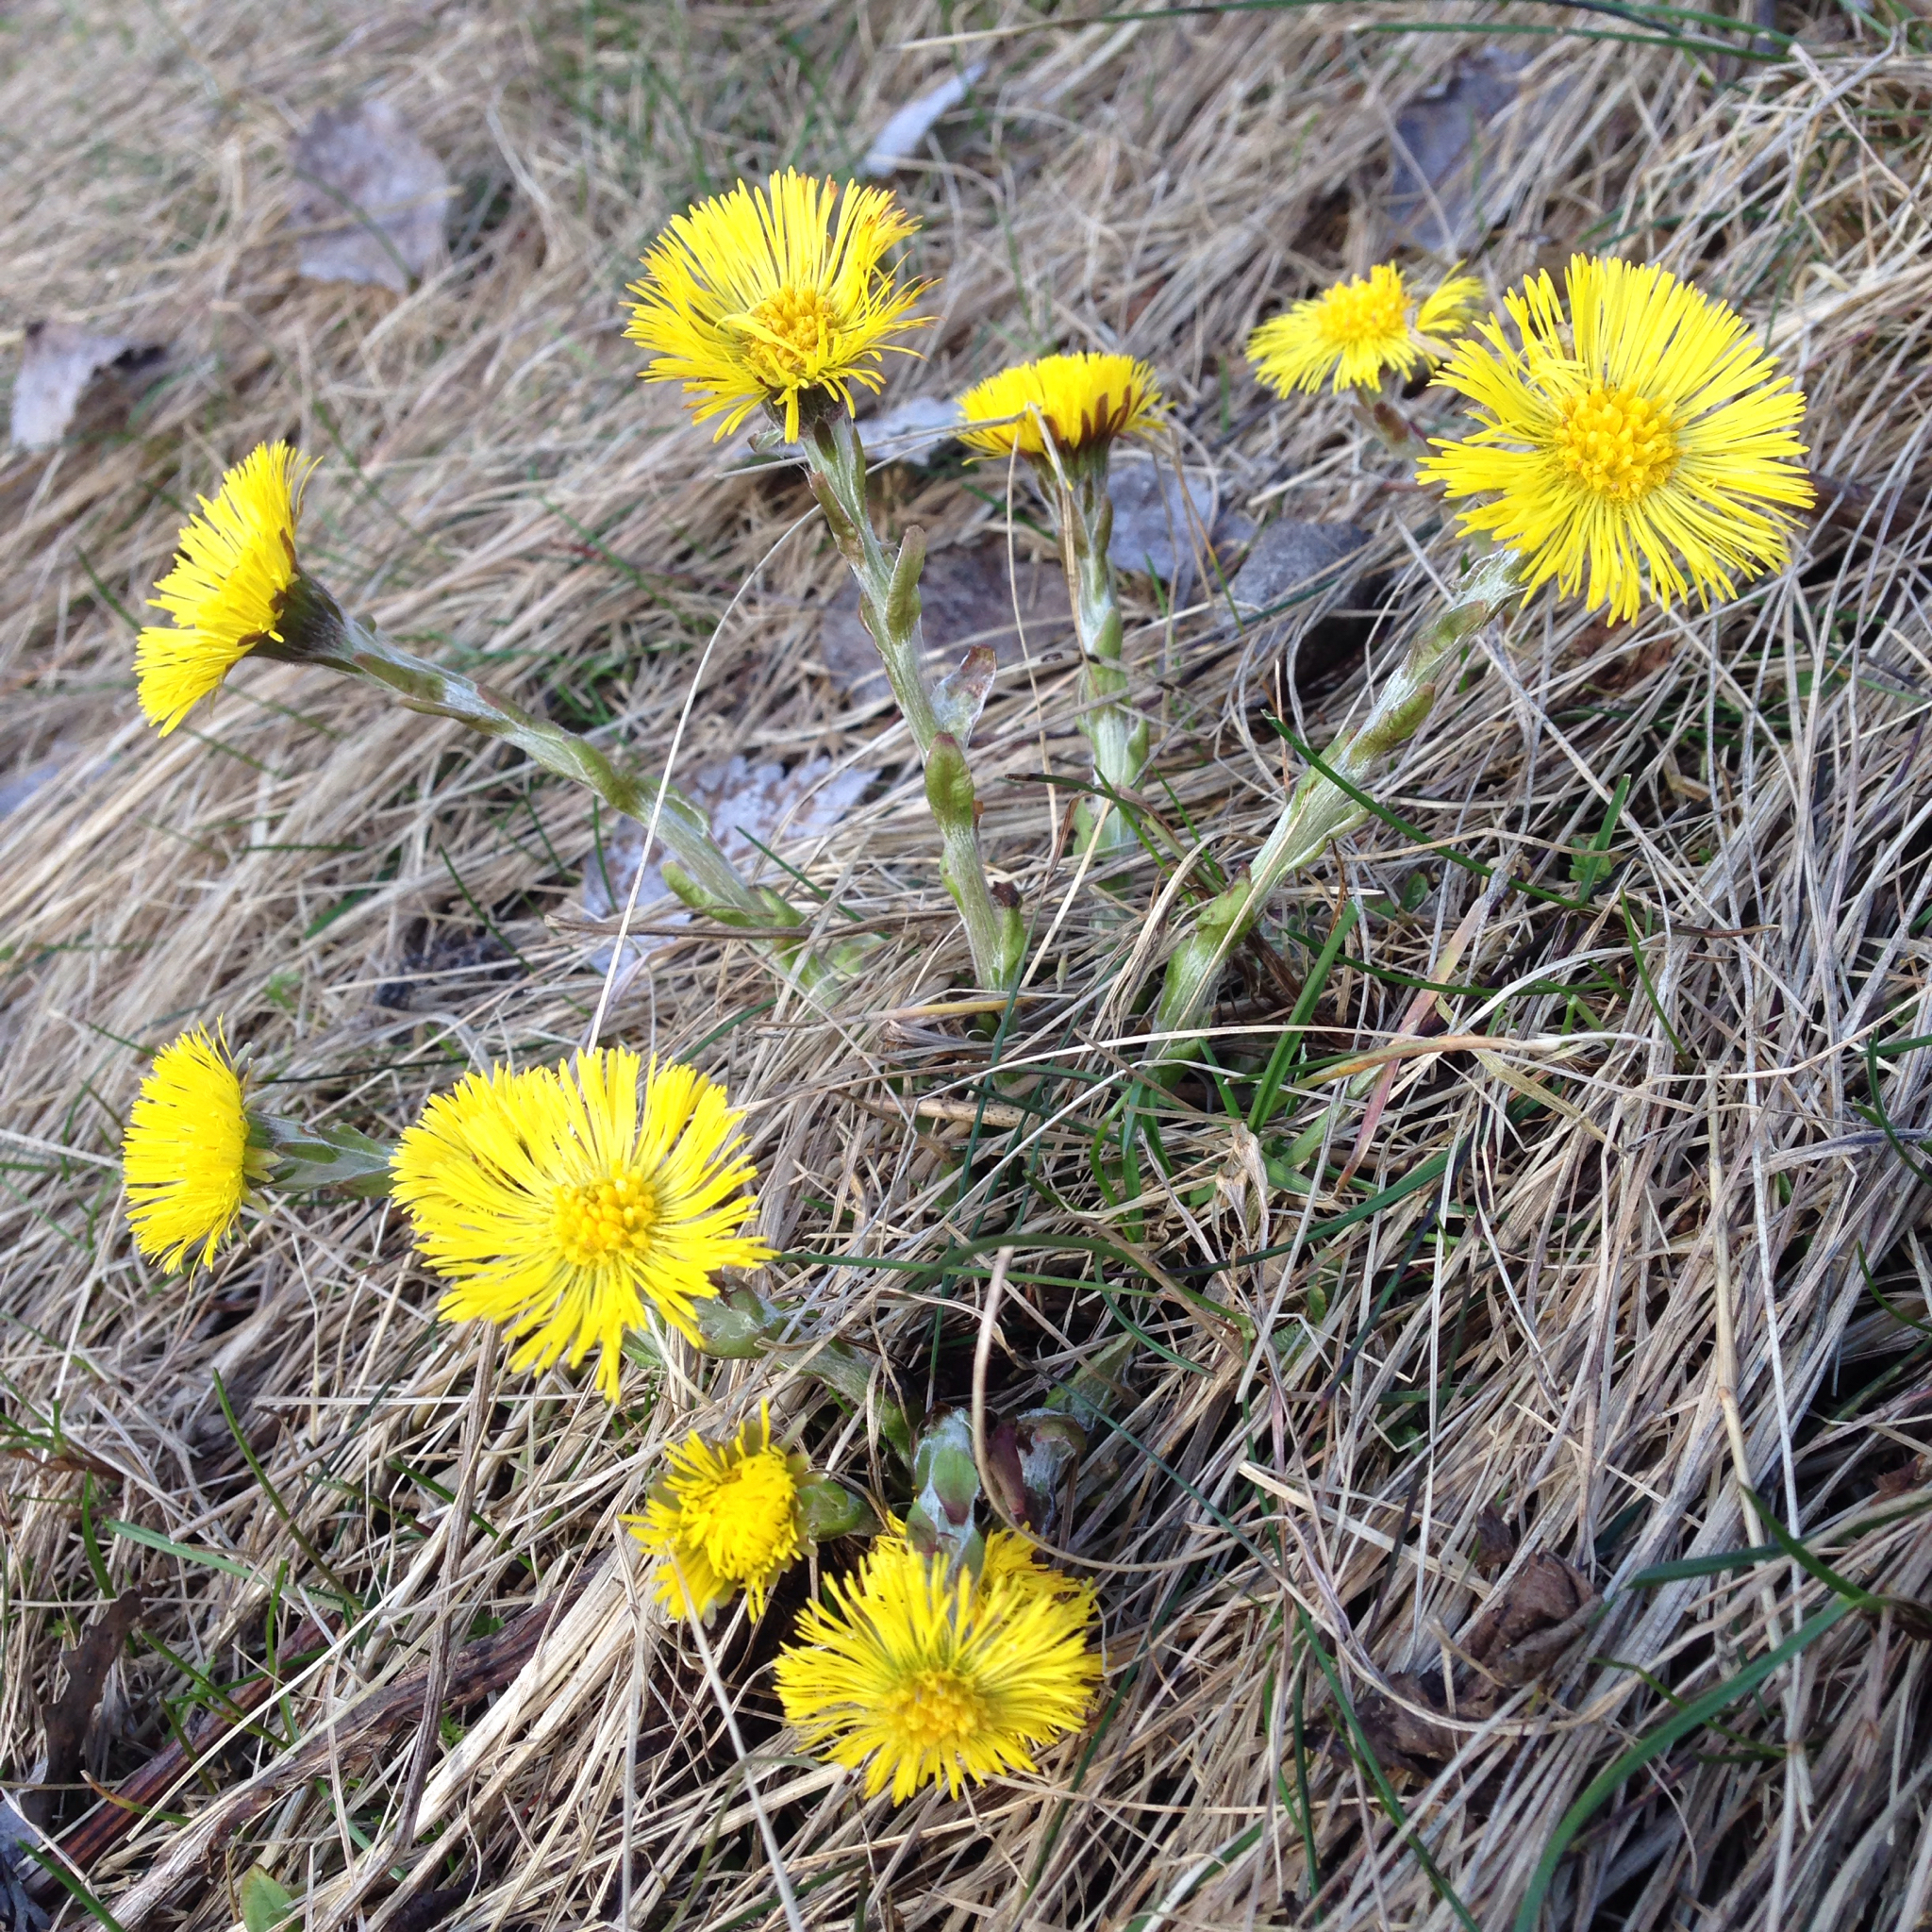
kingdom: Plantae
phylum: Tracheophyta
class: Magnoliopsida
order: Asterales
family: Asteraceae
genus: Tussilago
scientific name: Tussilago farfara
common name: Coltsfoot
